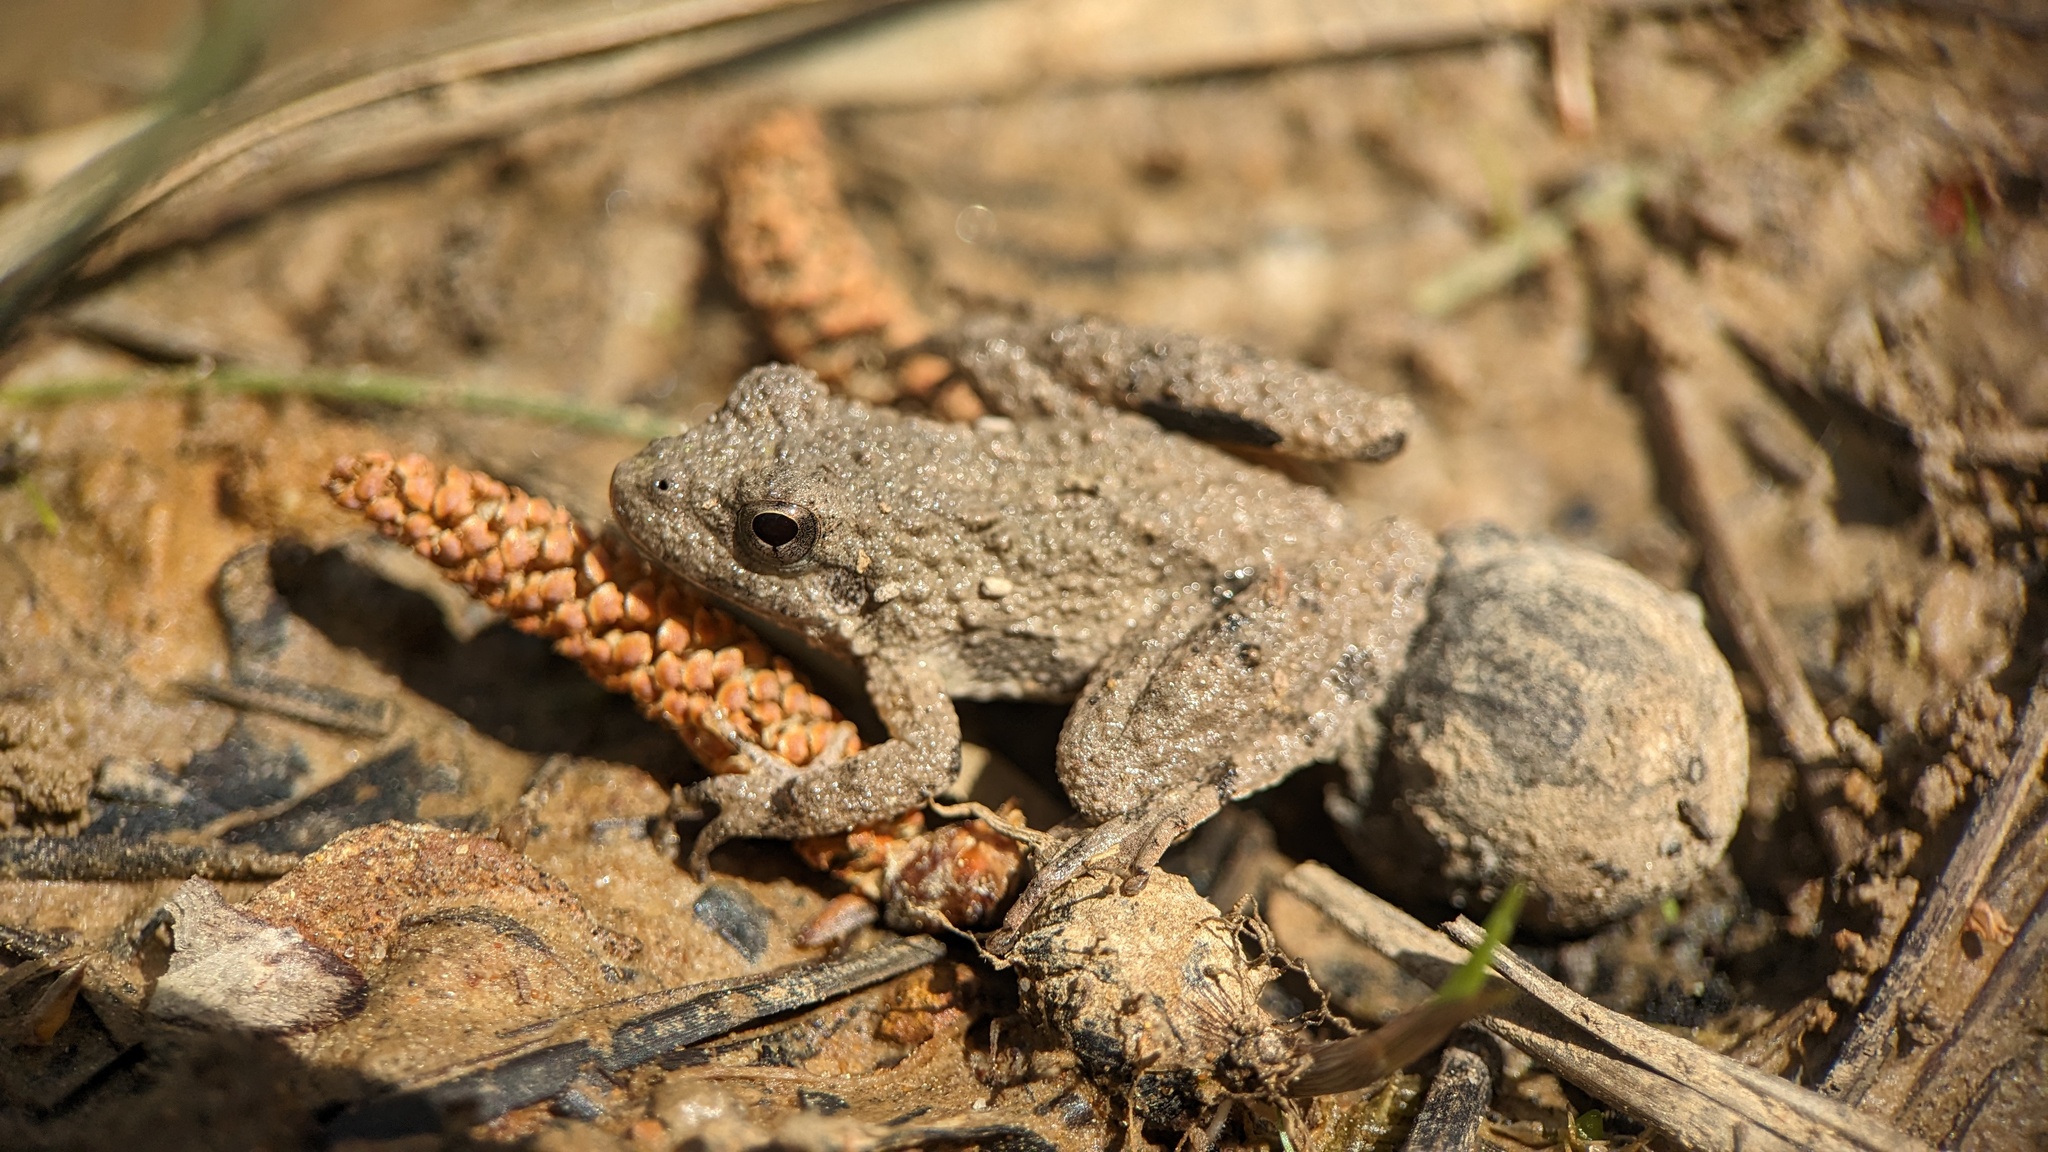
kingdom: Animalia
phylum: Chordata
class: Amphibia
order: Anura
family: Hylidae
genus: Acris
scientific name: Acris blanchardi
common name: Blanchard's cricket frog
